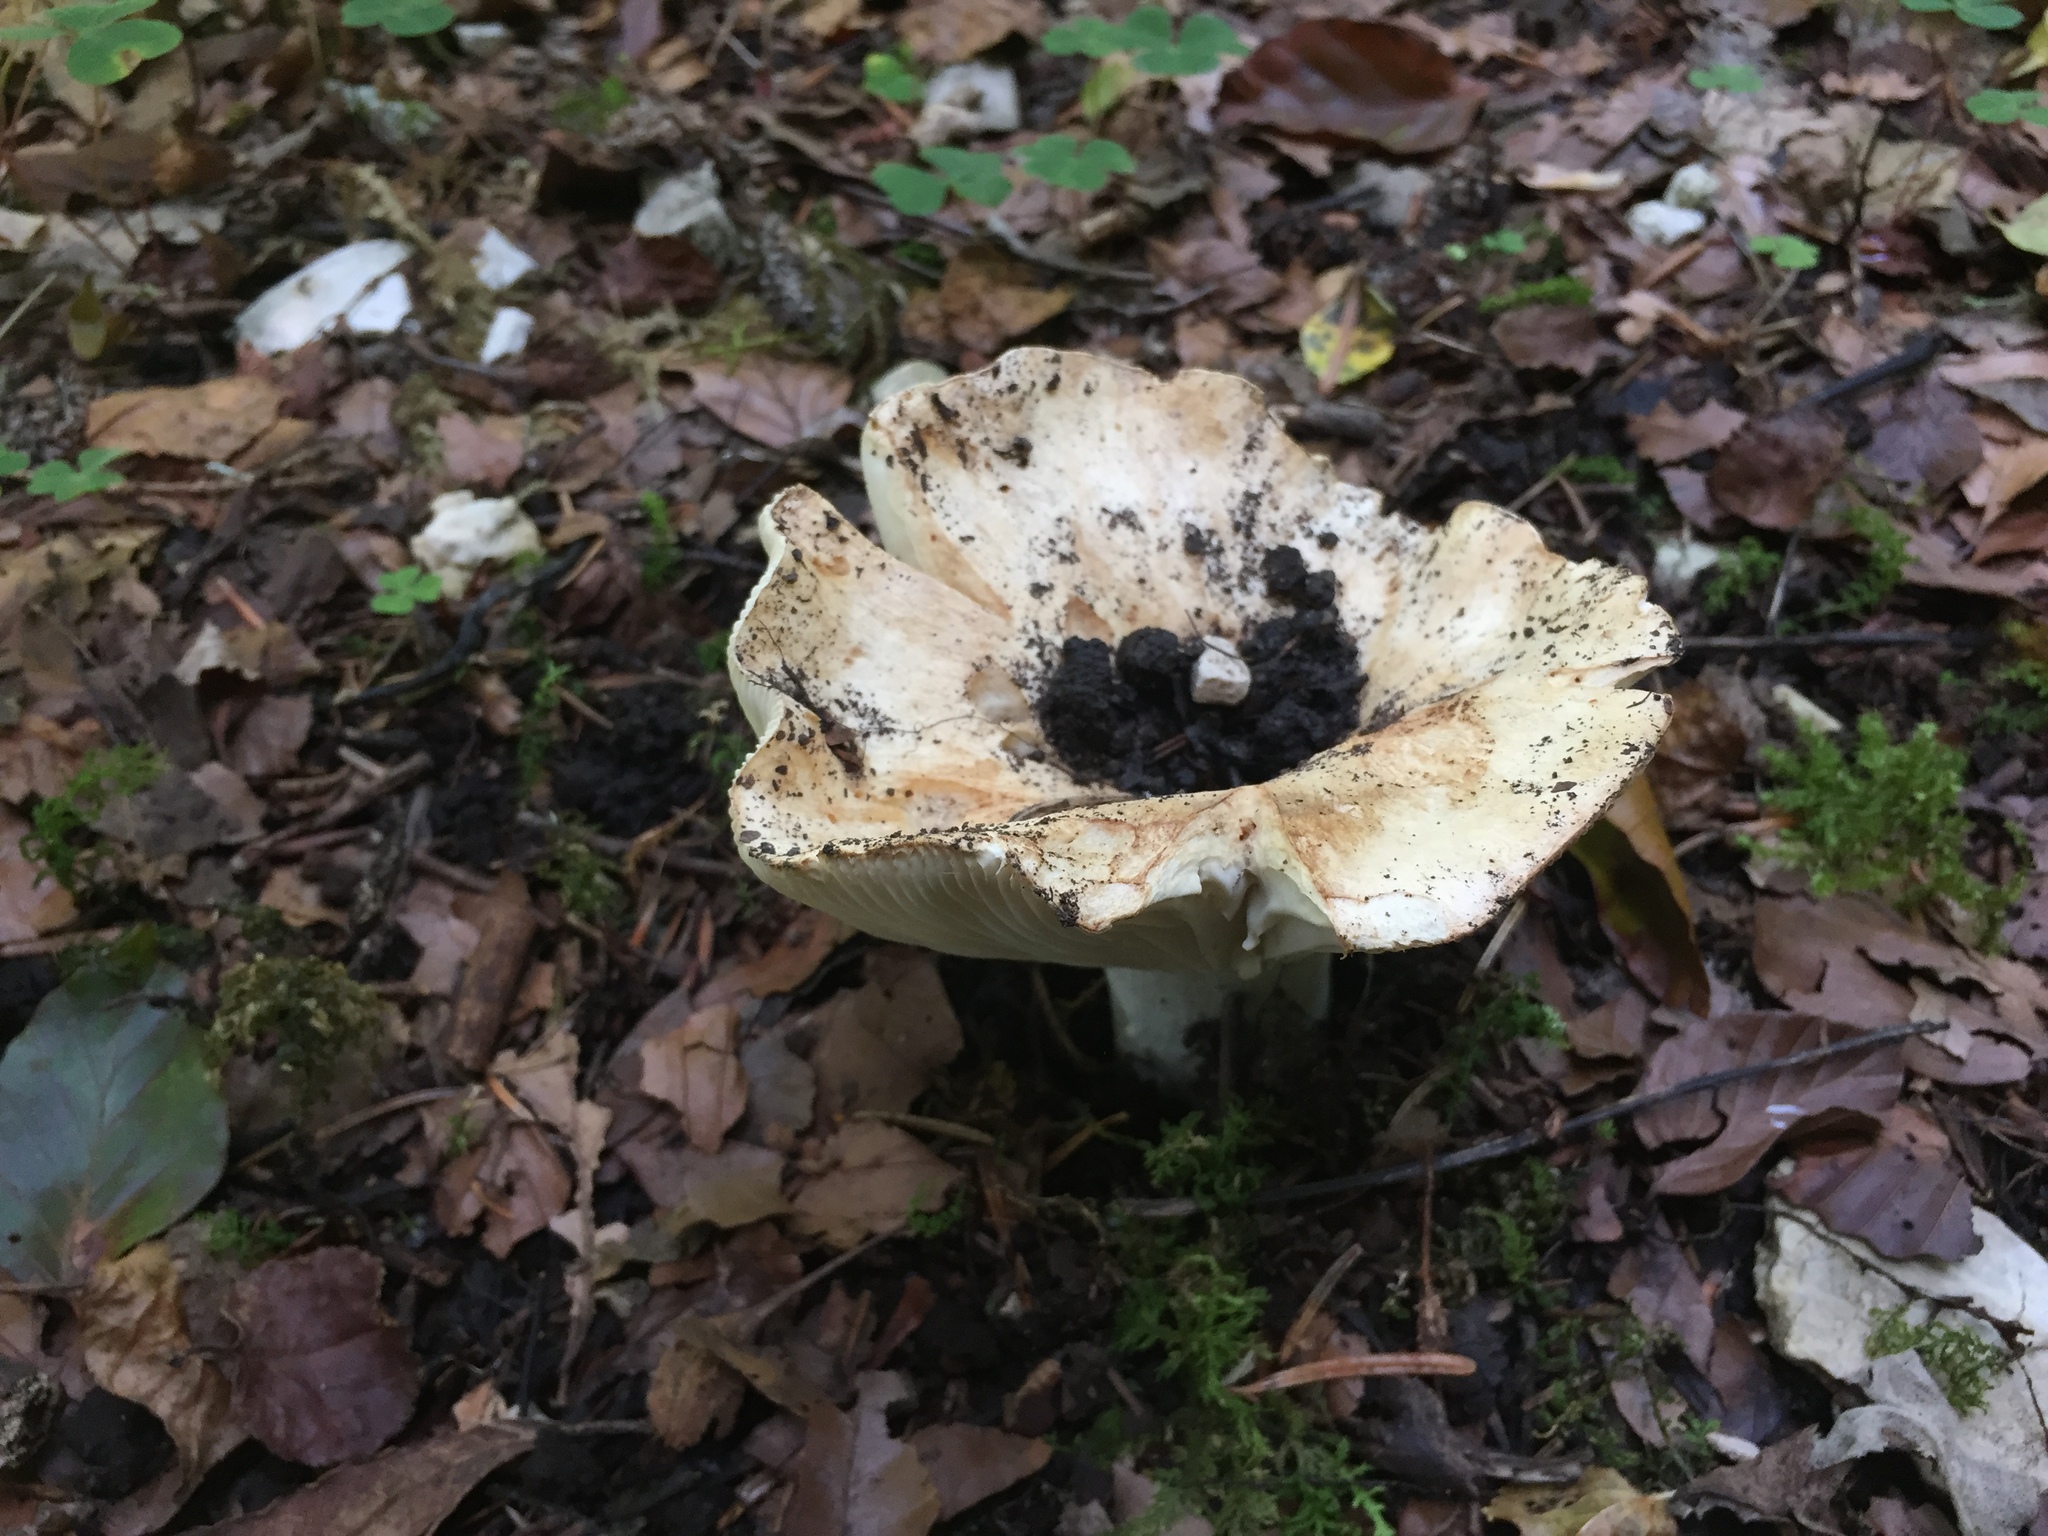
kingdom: Fungi
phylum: Basidiomycota
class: Agaricomycetes
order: Russulales
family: Russulaceae
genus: Russula
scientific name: Russula delica
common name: Milk white brittlegill
